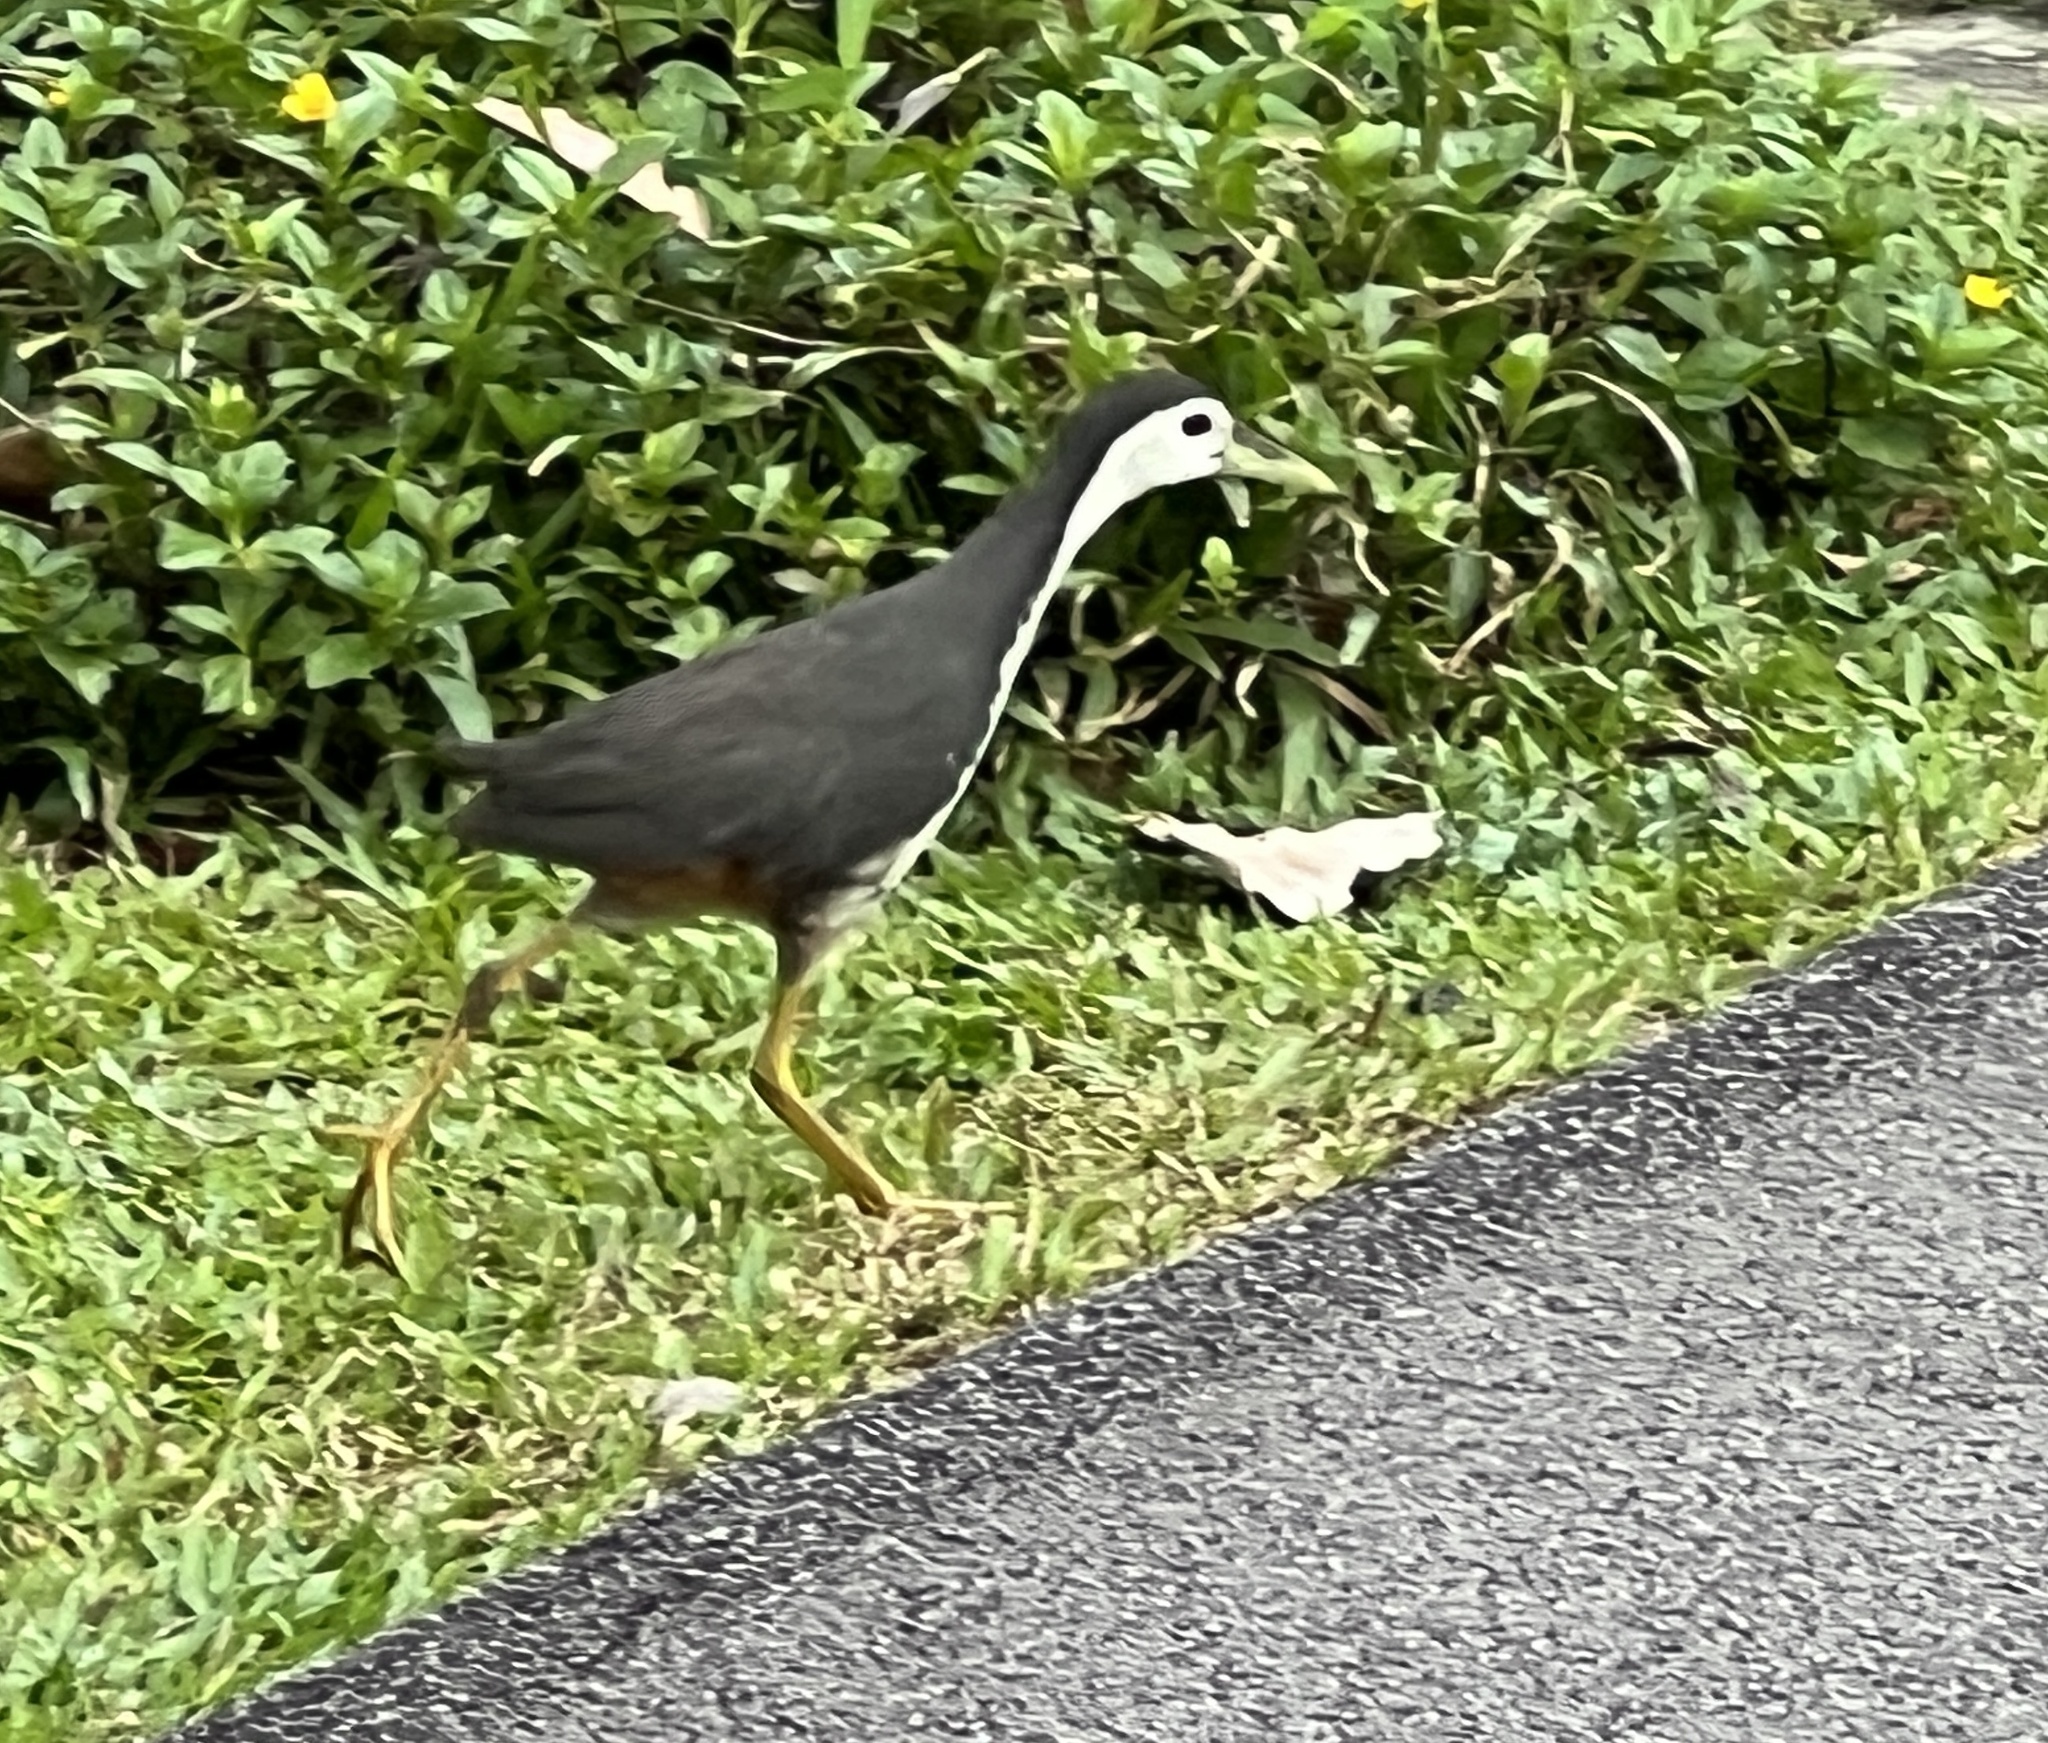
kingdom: Animalia
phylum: Chordata
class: Aves
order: Gruiformes
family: Rallidae
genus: Amaurornis
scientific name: Amaurornis phoenicurus
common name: White-breasted waterhen
